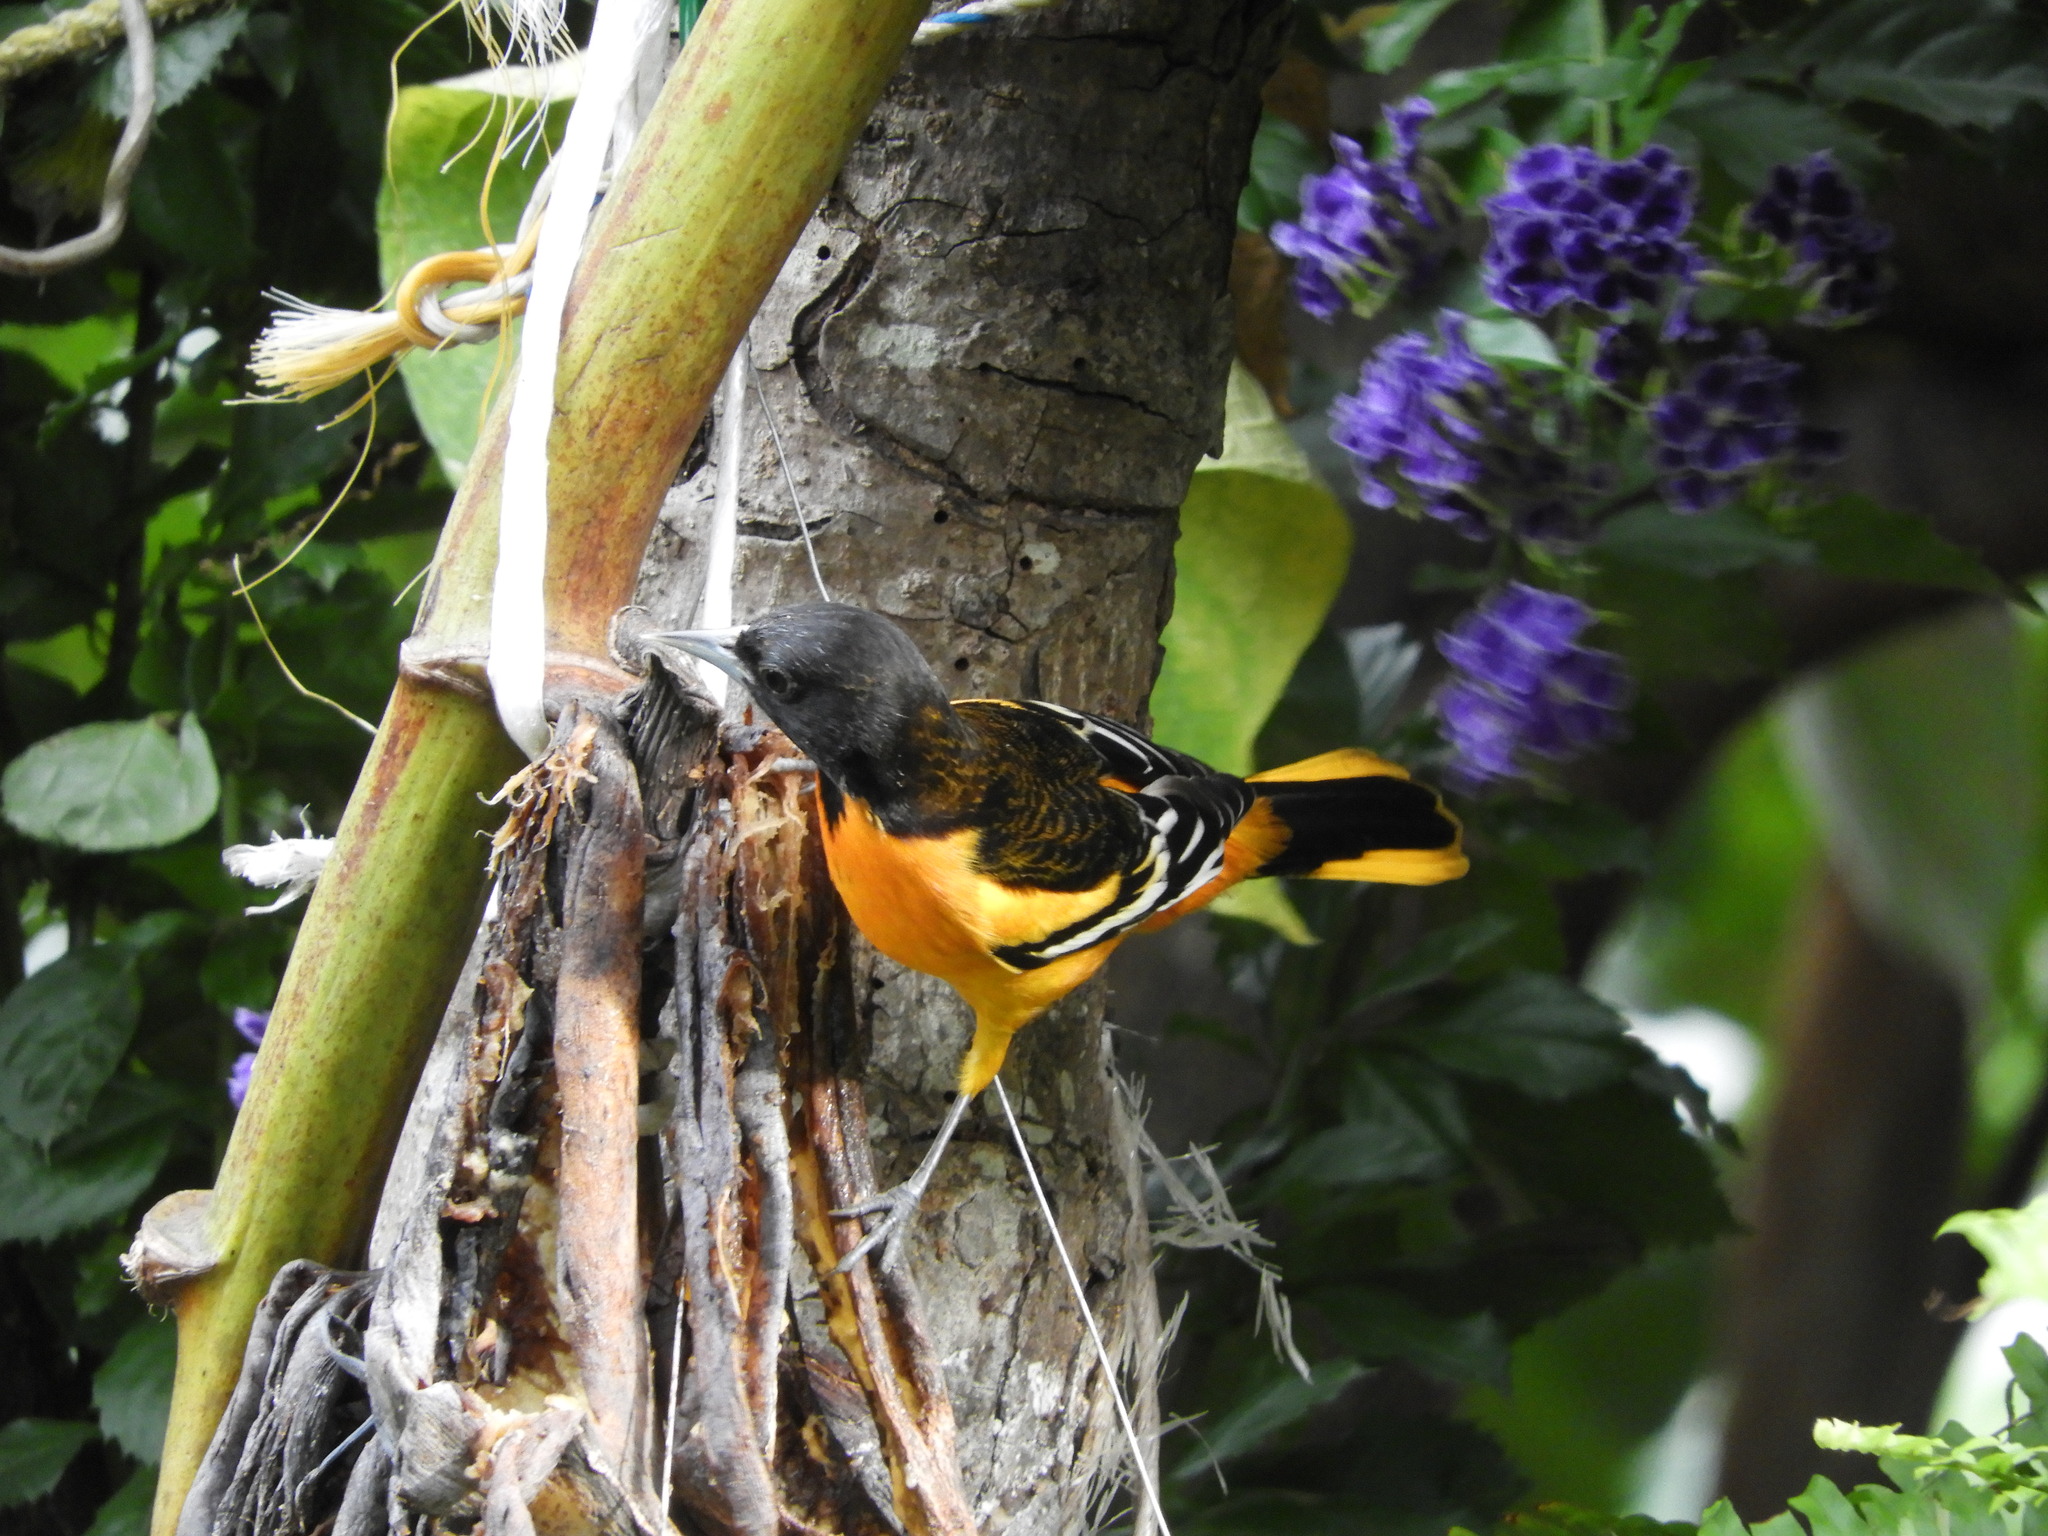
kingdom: Animalia
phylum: Chordata
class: Aves
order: Passeriformes
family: Icteridae
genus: Icterus
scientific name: Icterus galbula
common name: Baltimore oriole
